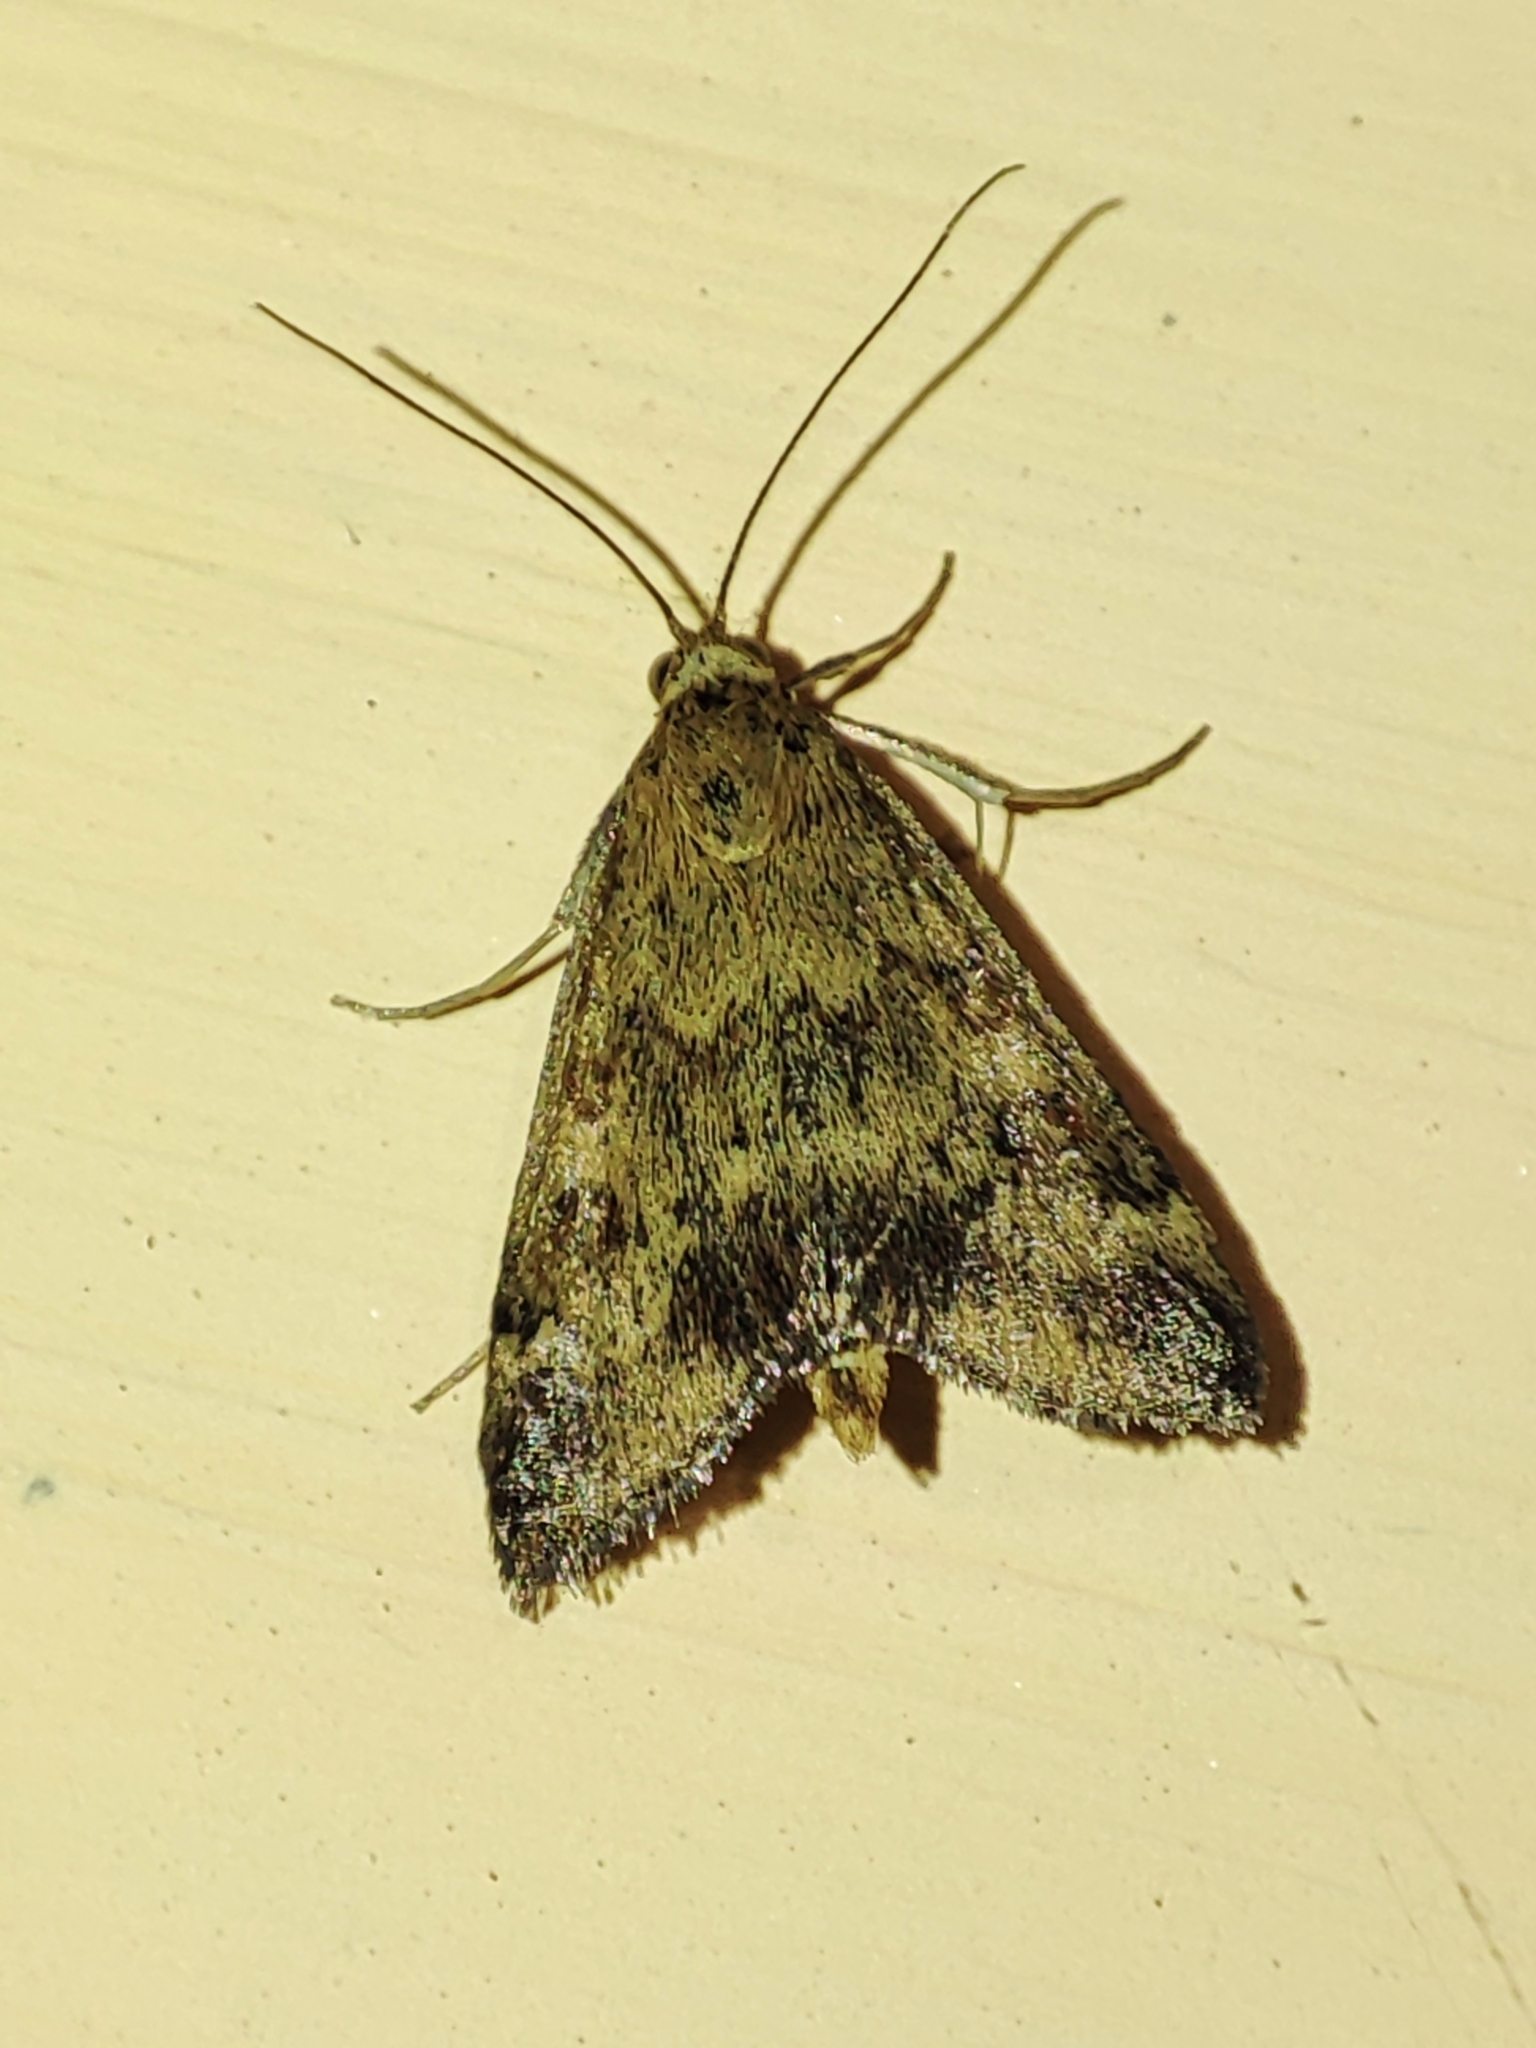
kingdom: Animalia
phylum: Arthropoda
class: Insecta
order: Lepidoptera
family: Crambidae
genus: Pyrausta
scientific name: Pyrausta despicata
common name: Straw-barred pearl
